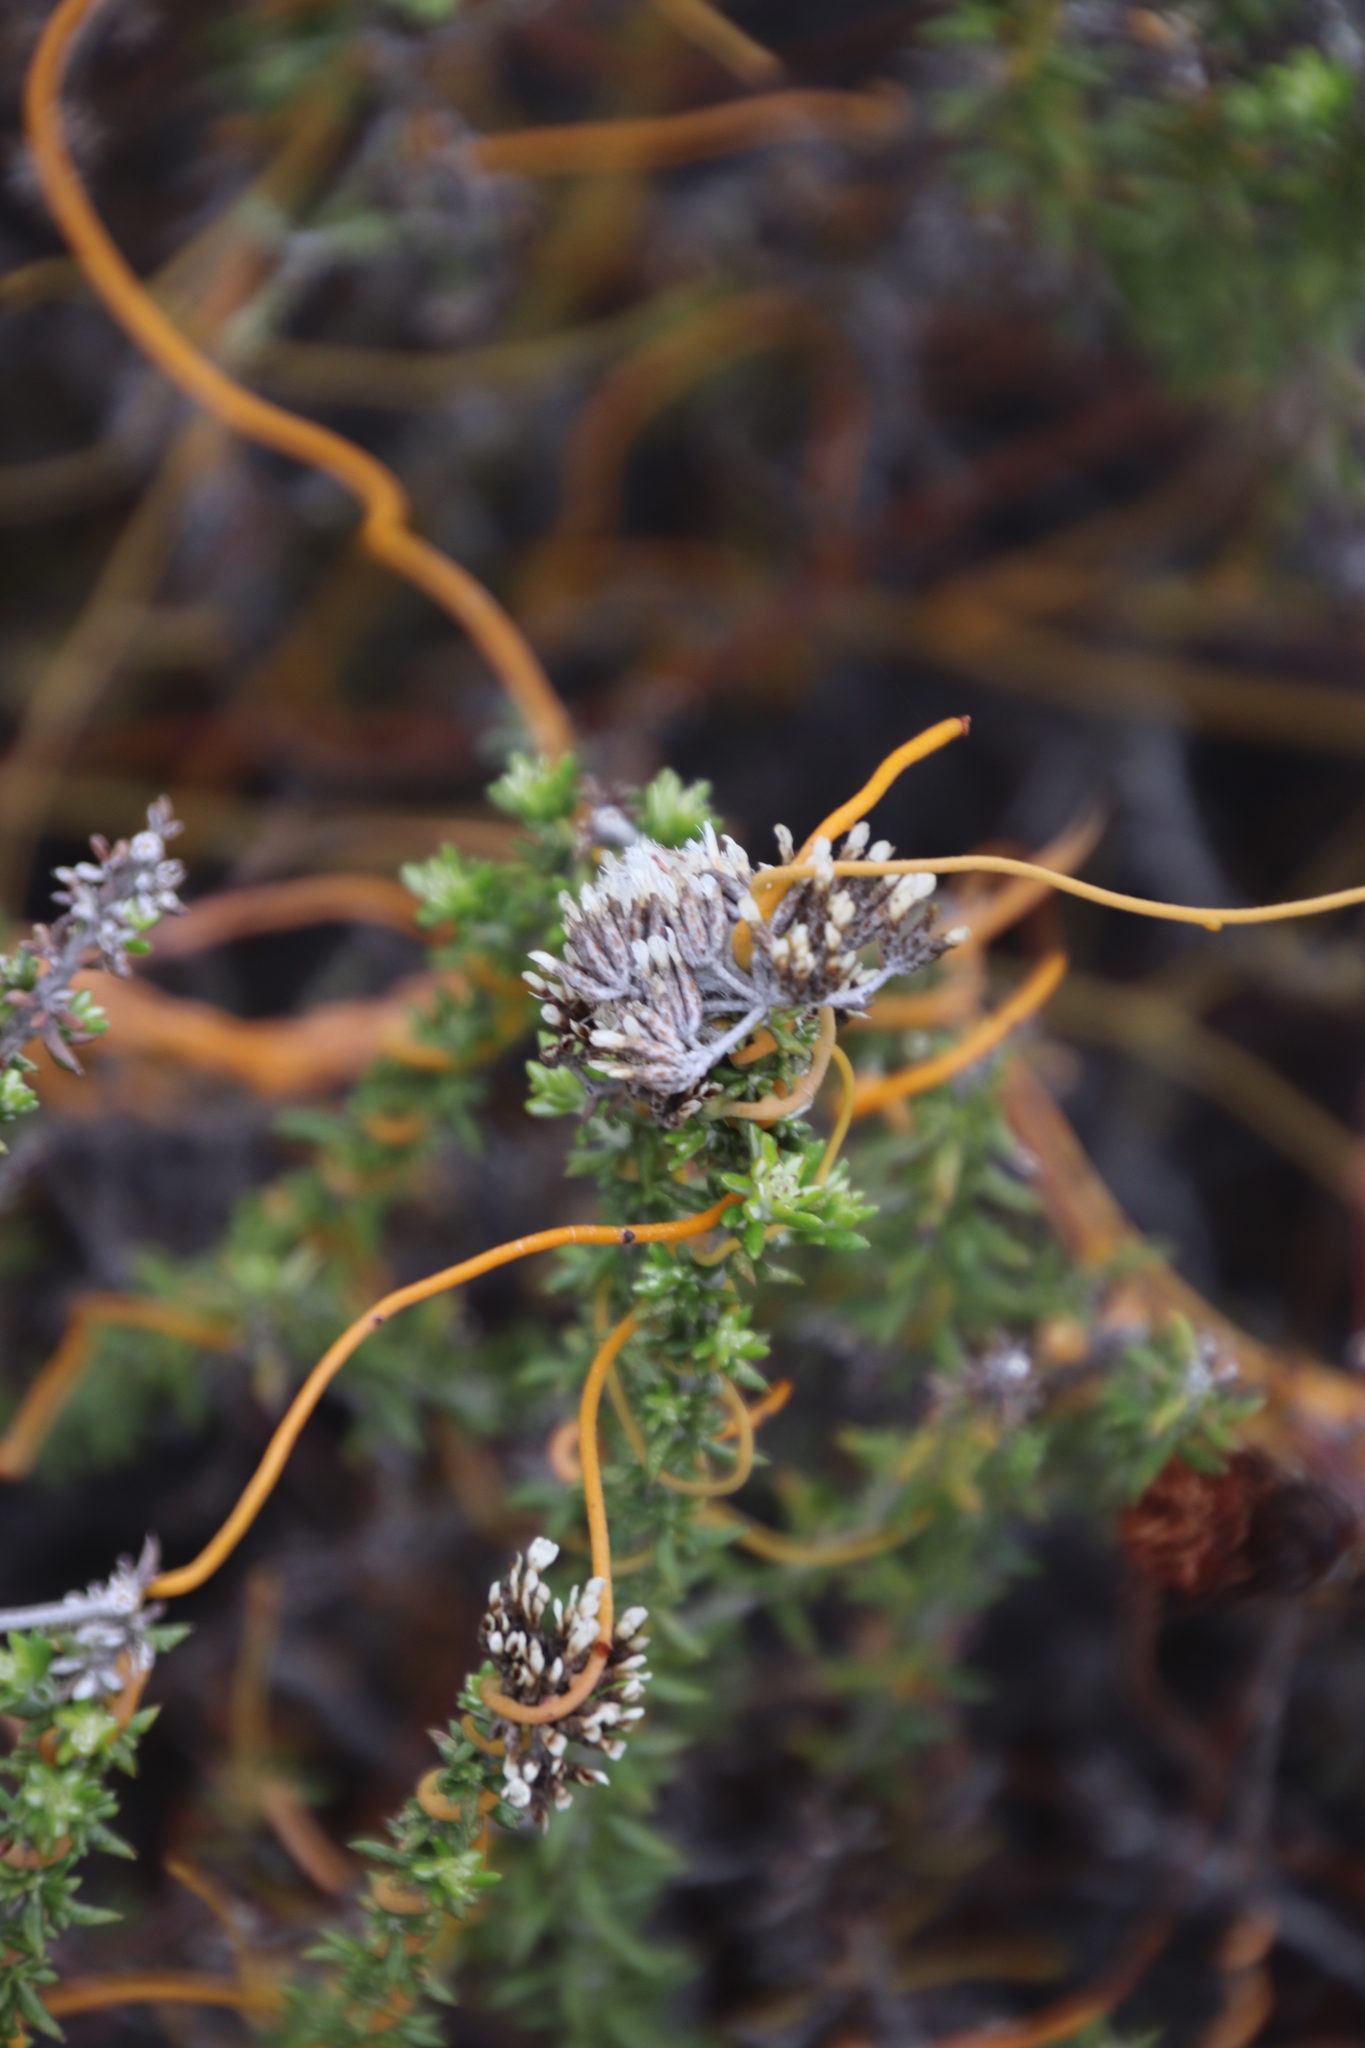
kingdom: Plantae
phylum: Tracheophyta
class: Magnoliopsida
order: Asterales
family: Asteraceae
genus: Metalasia
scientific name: Metalasia densa
